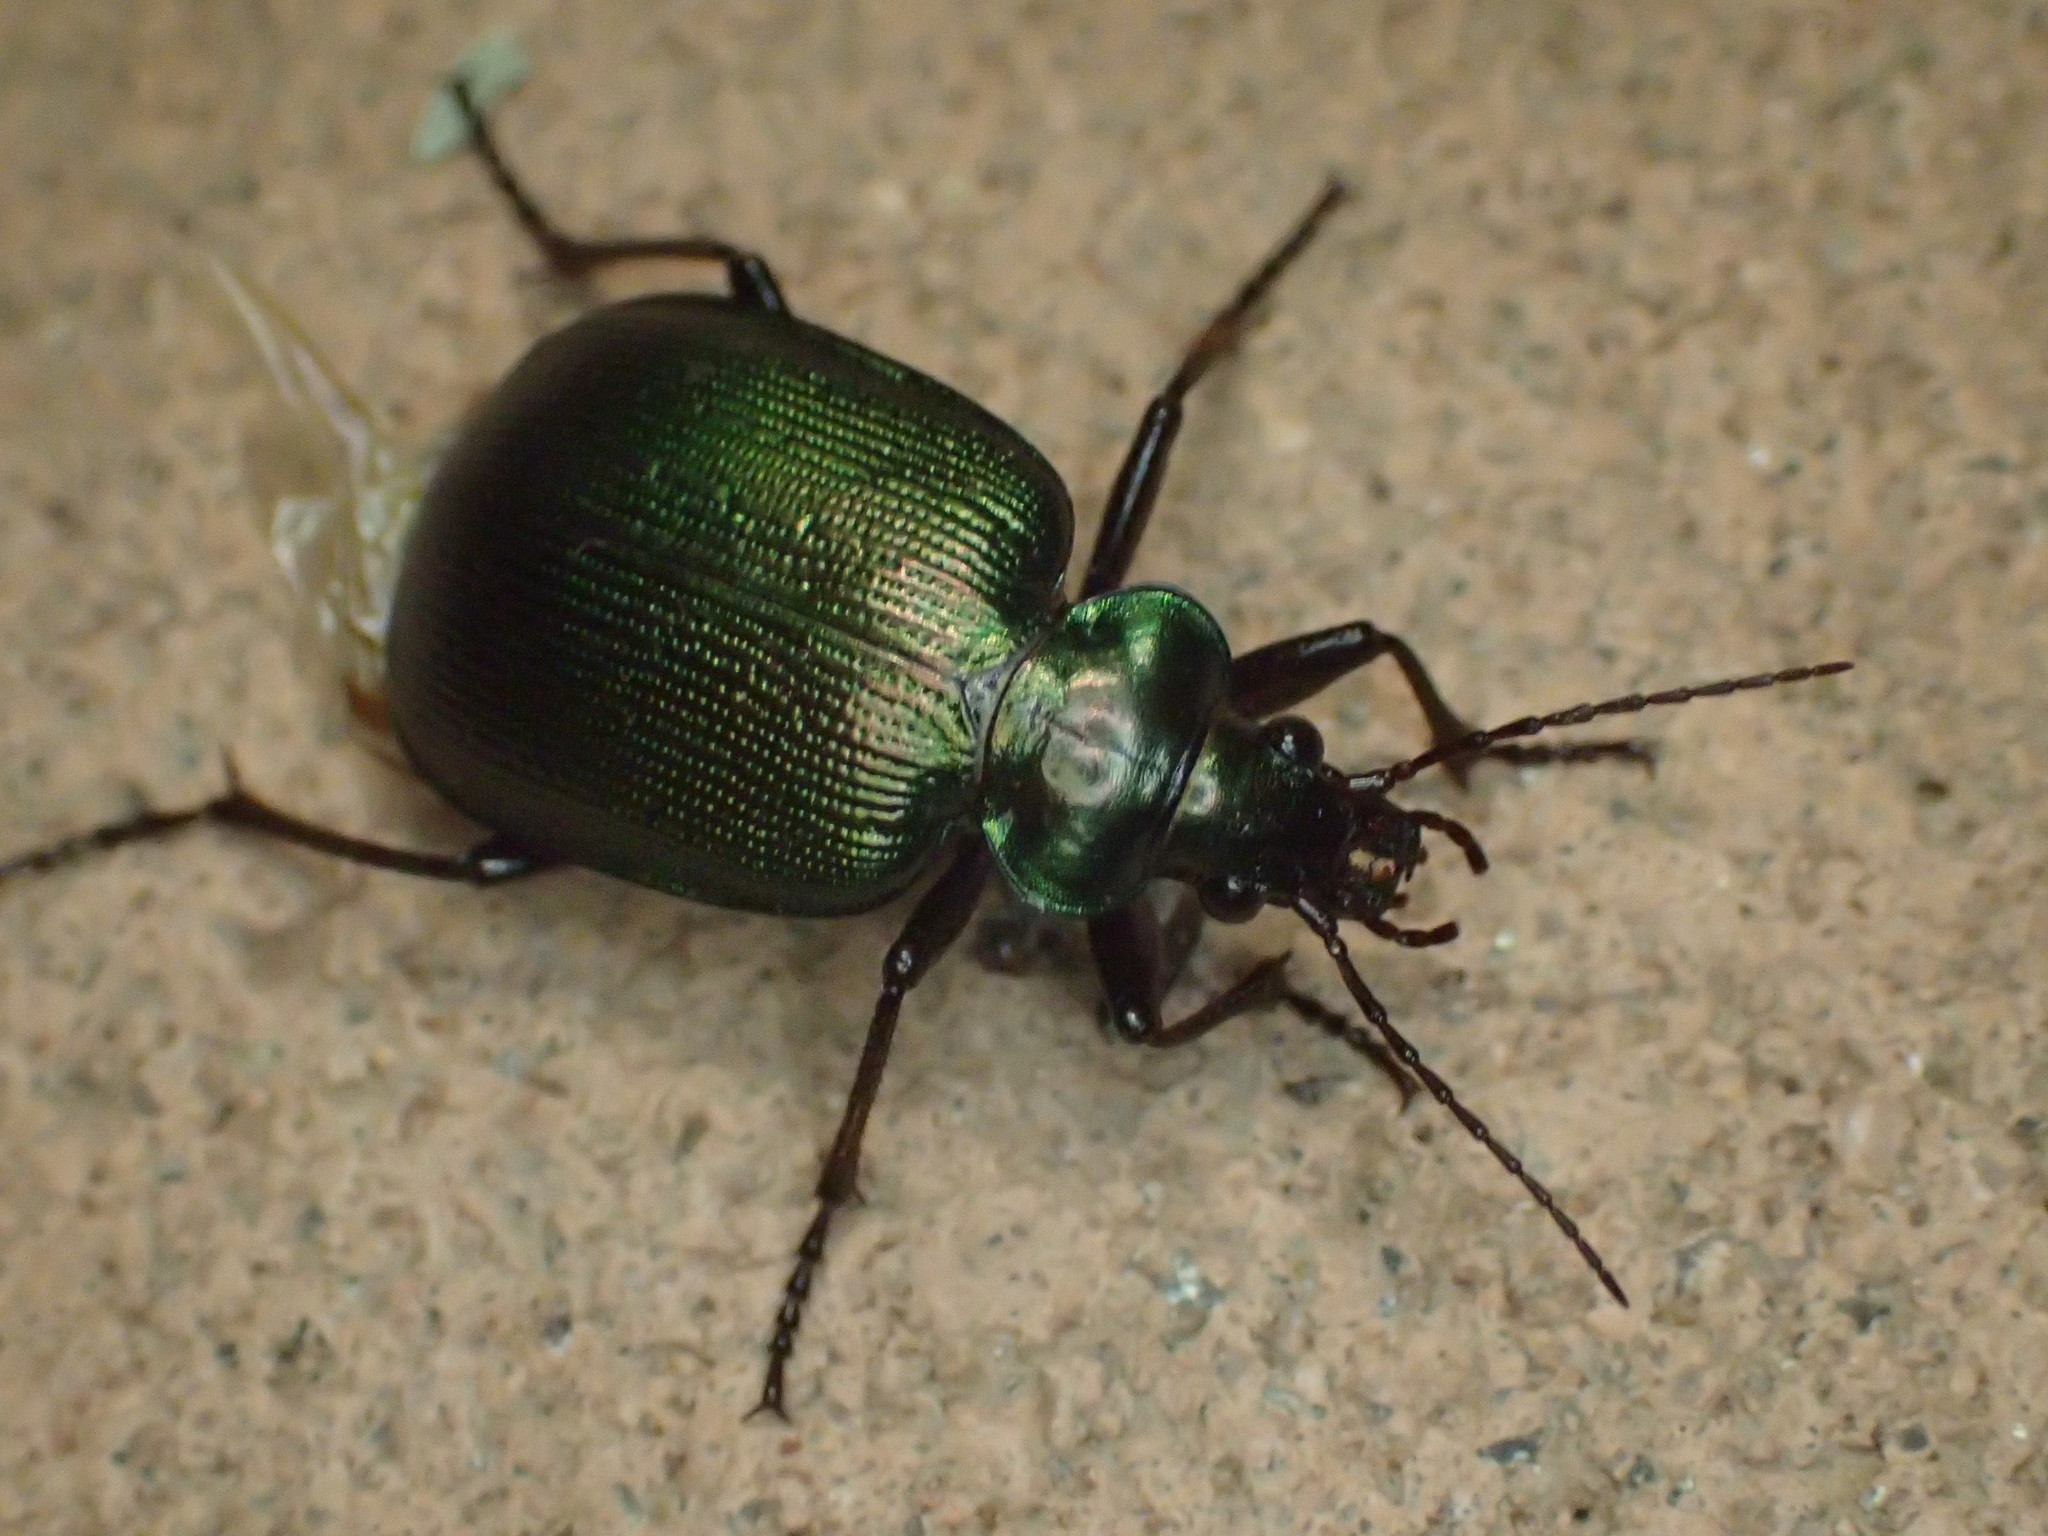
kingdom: Animalia
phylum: Arthropoda
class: Insecta
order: Coleoptera
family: Carabidae
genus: Calosoma
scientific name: Calosoma schayeri
